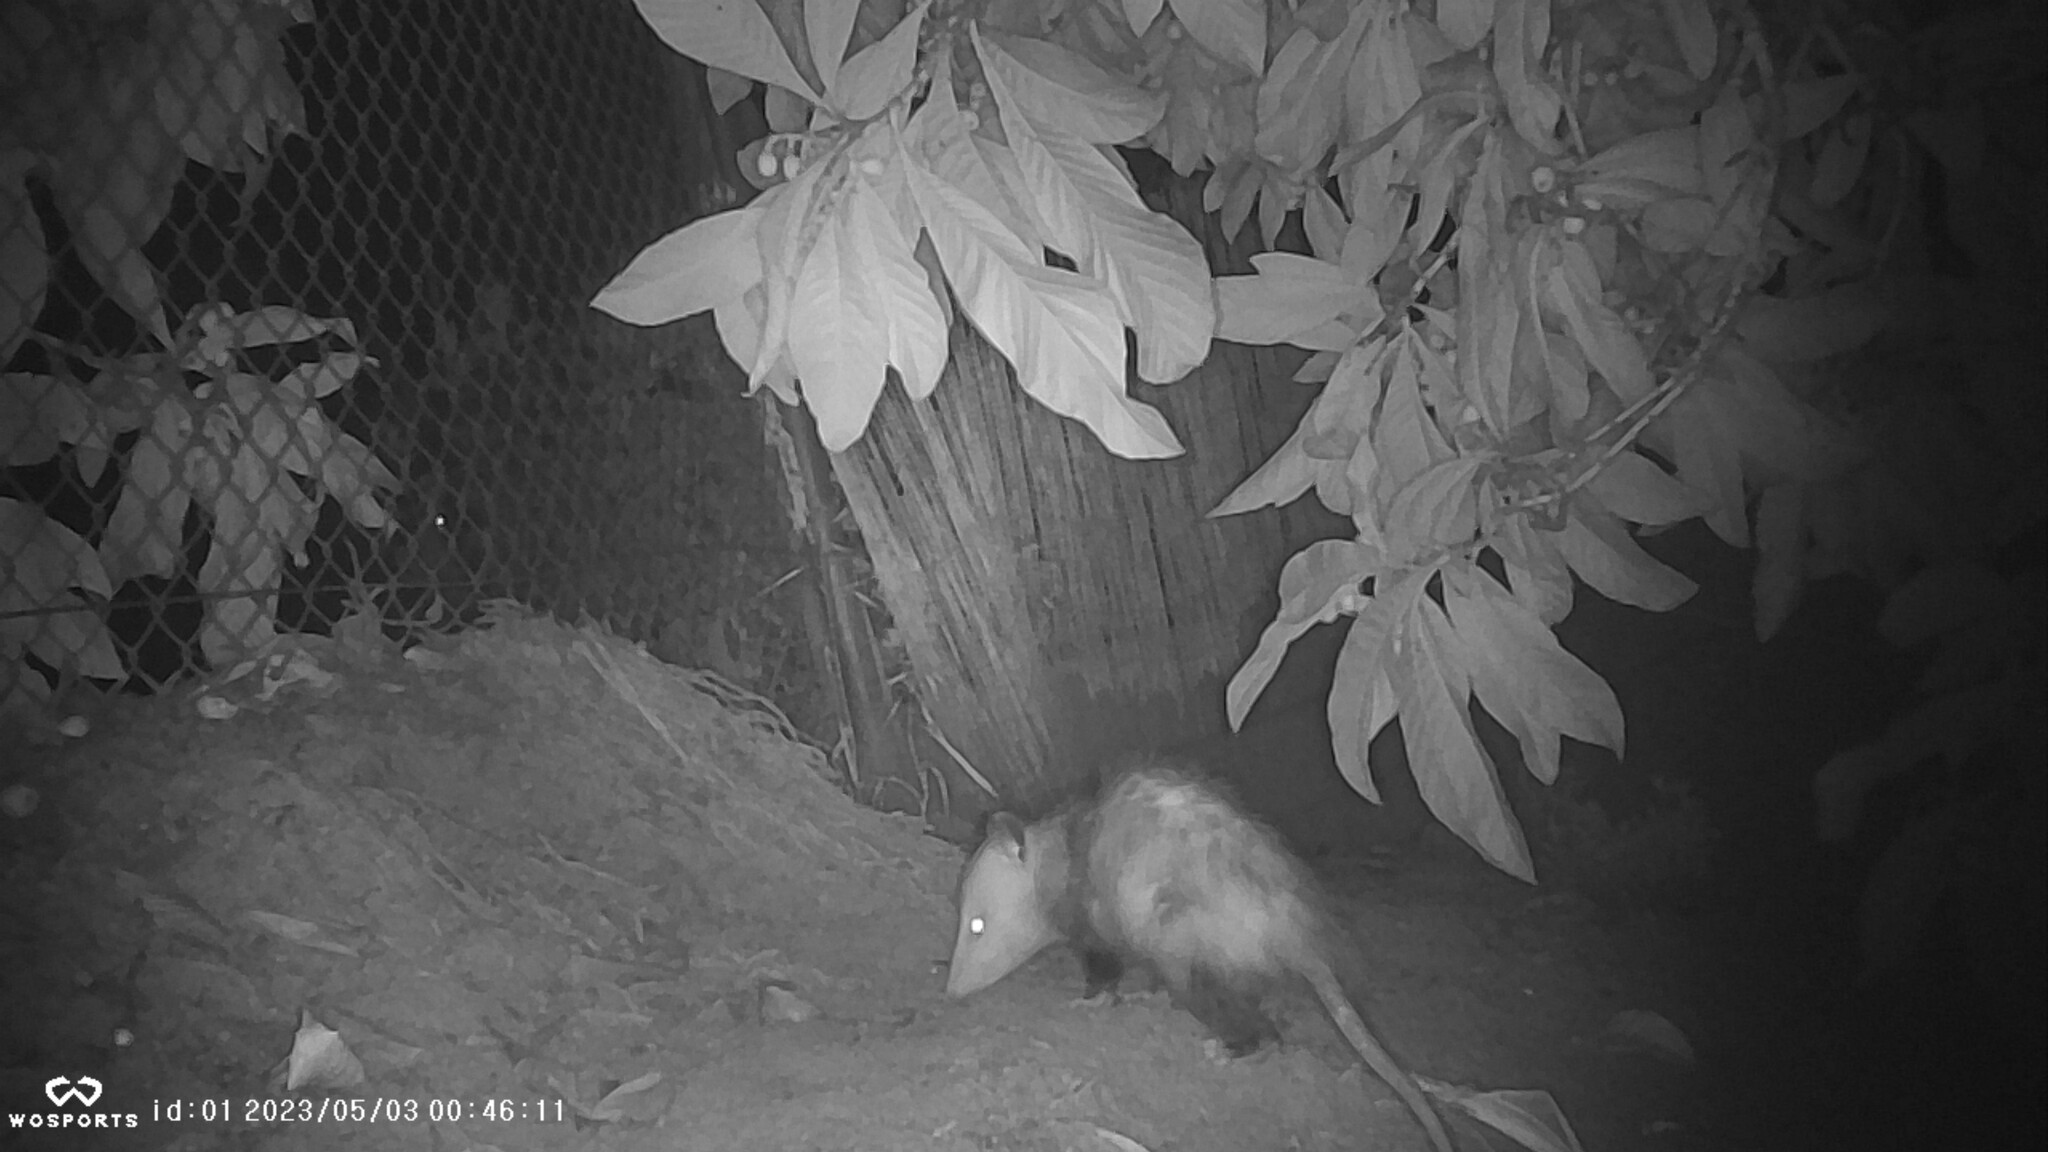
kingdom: Animalia
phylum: Chordata
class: Mammalia
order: Didelphimorphia
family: Didelphidae
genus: Didelphis
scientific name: Didelphis virginiana
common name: Virginia opossum
